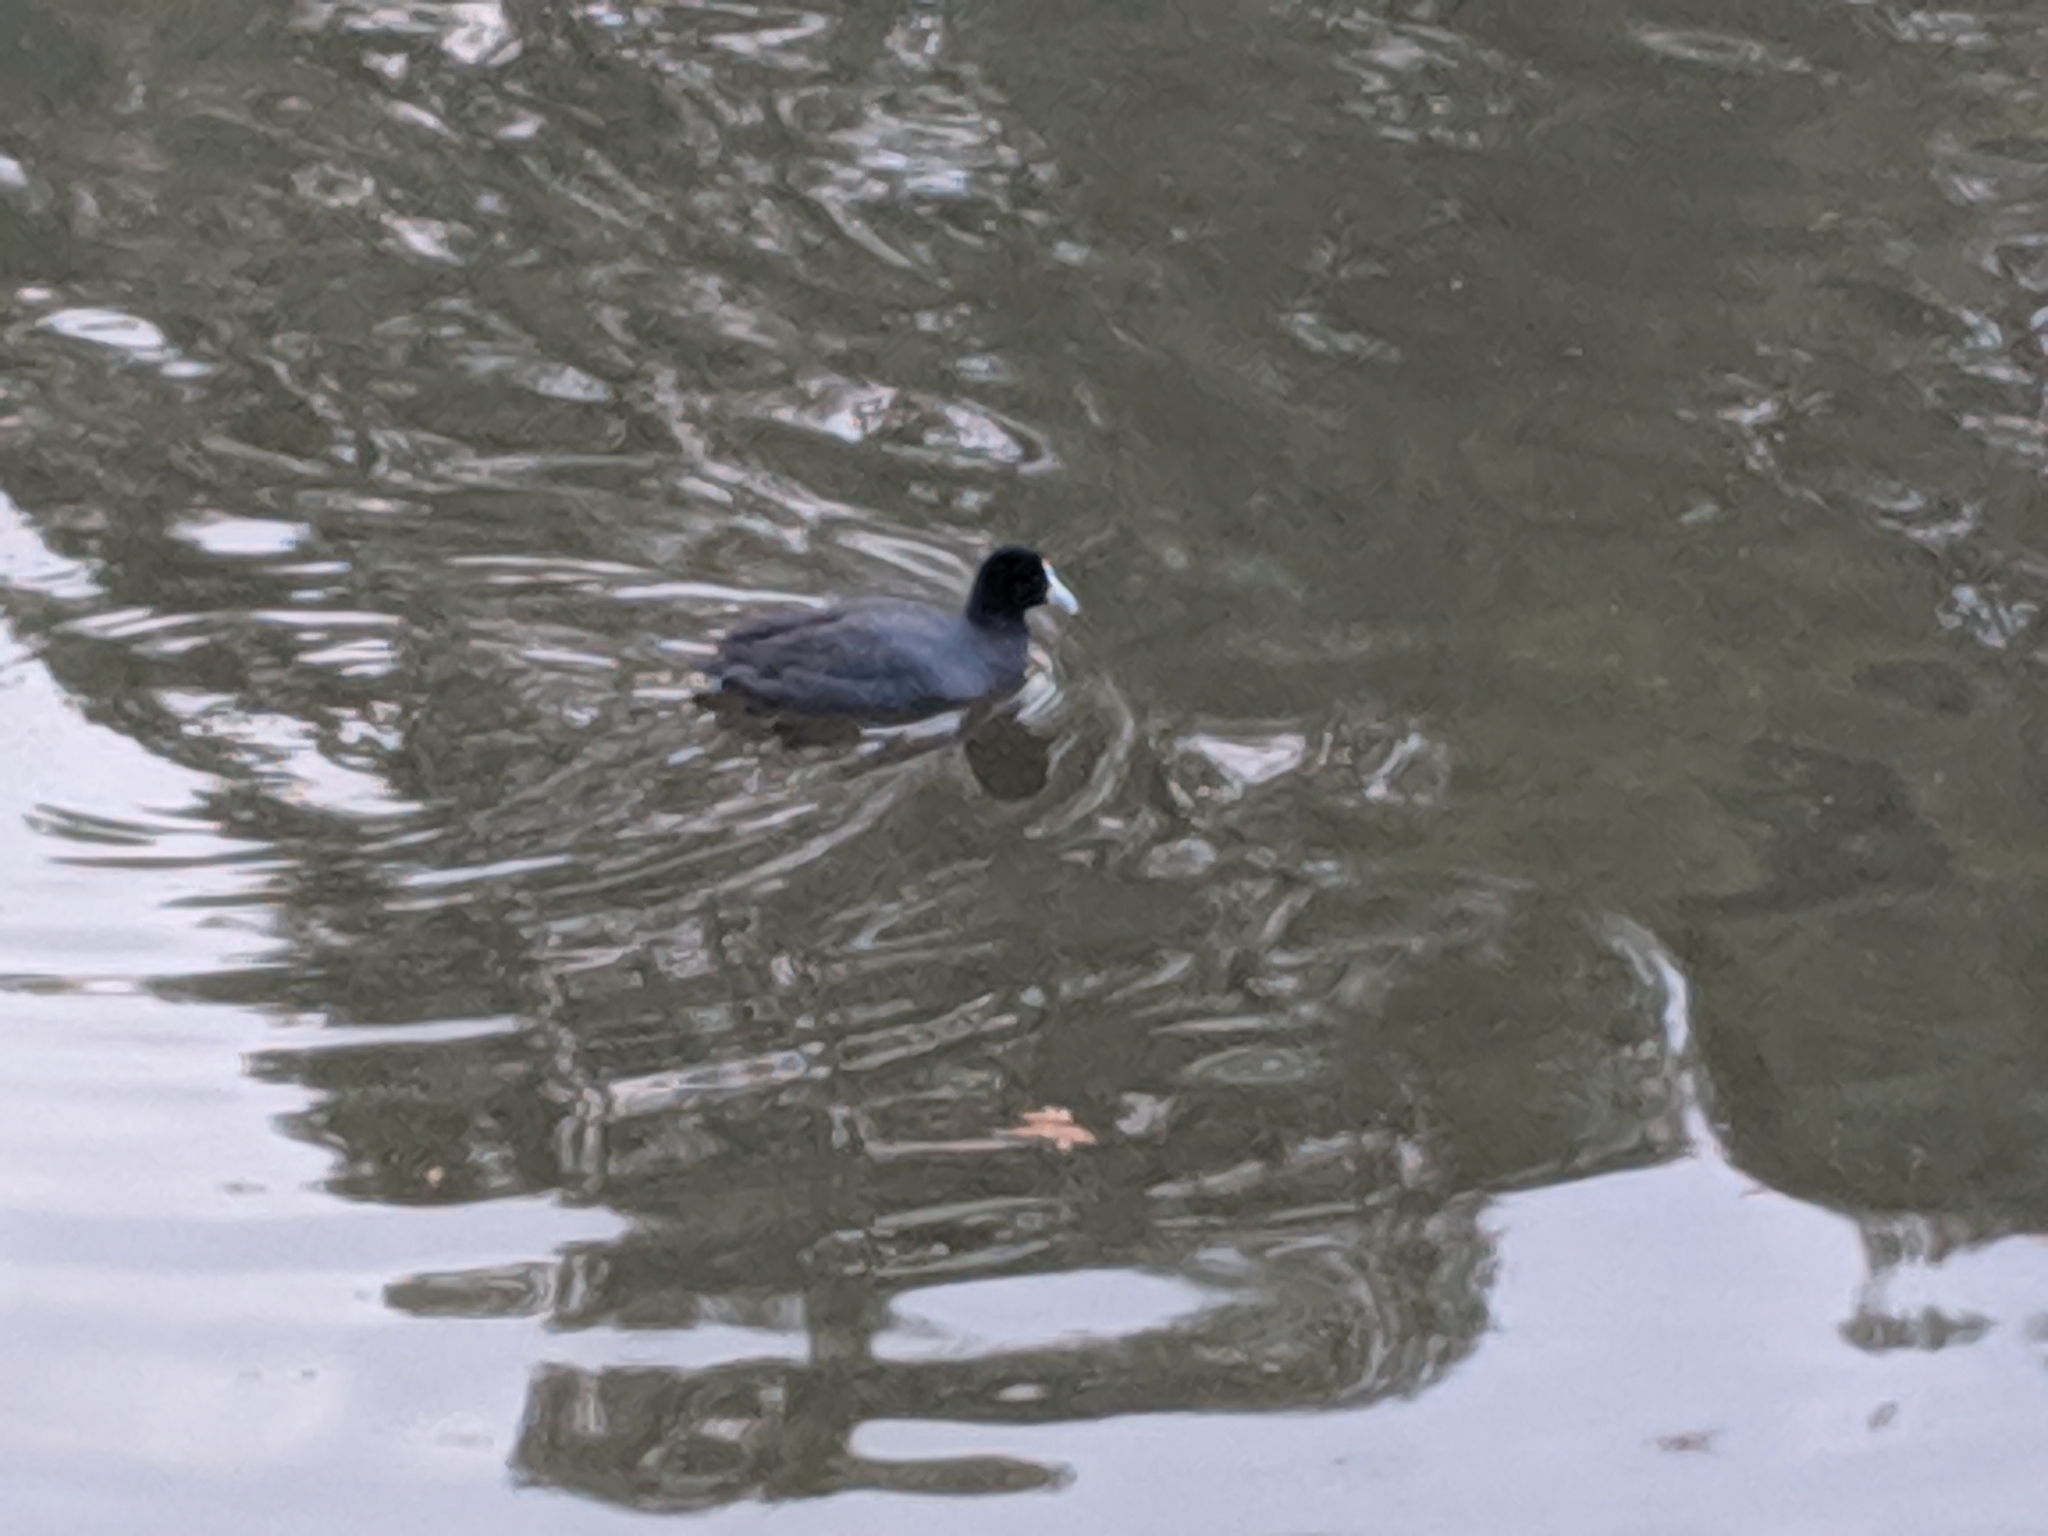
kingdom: Animalia
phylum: Chordata
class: Aves
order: Gruiformes
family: Rallidae
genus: Fulica
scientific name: Fulica atra
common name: Eurasian coot
